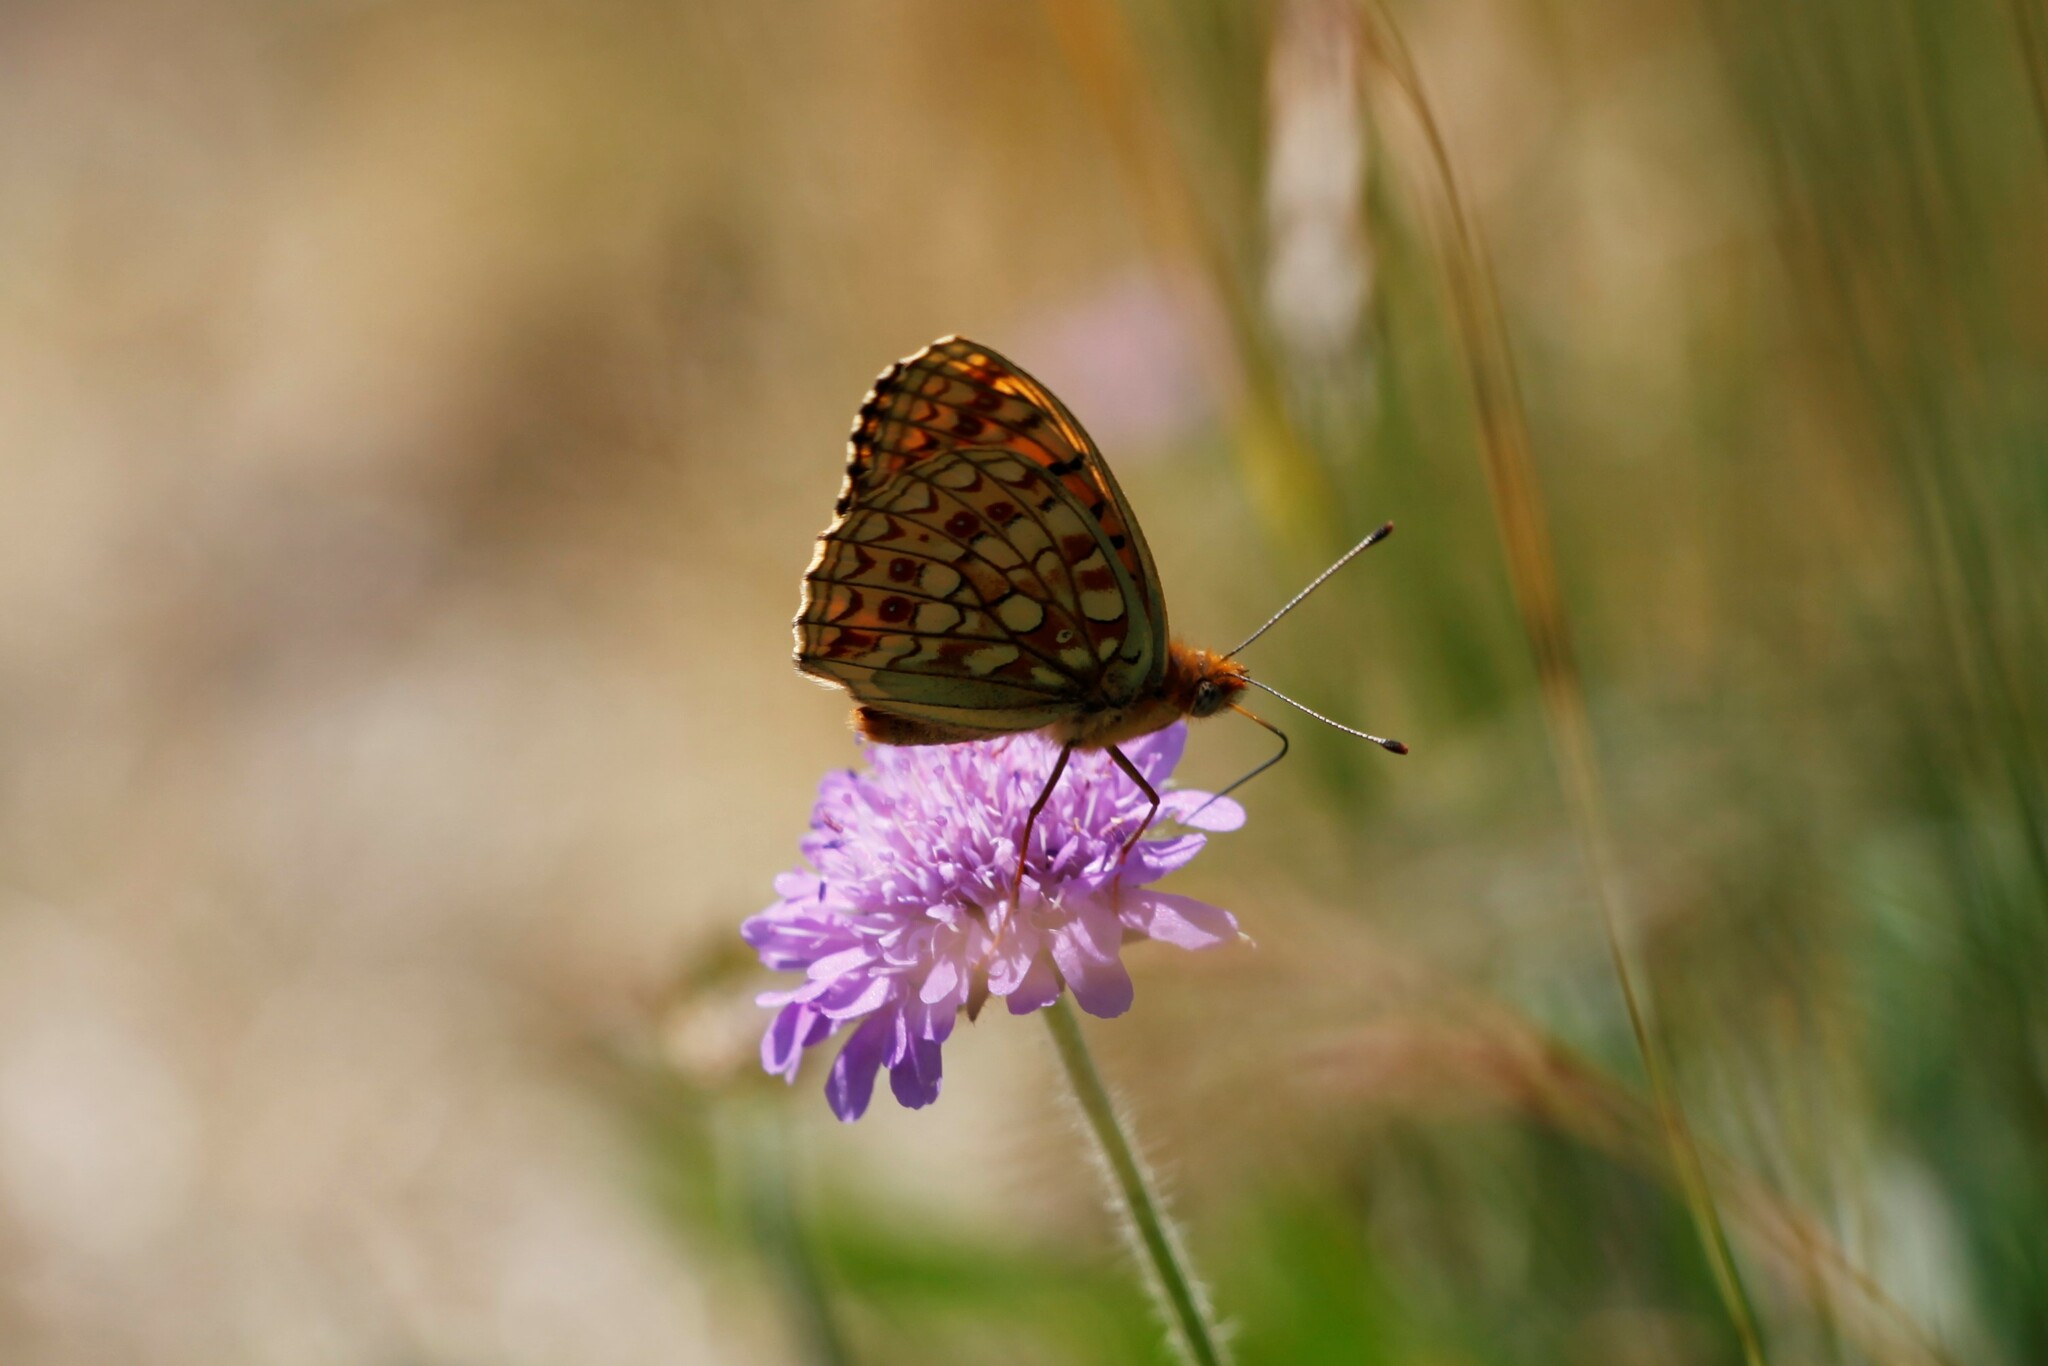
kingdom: Animalia
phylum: Arthropoda
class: Insecta
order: Lepidoptera
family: Nymphalidae
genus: Fabriciana
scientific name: Fabriciana niobe
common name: Niobe fritillary
